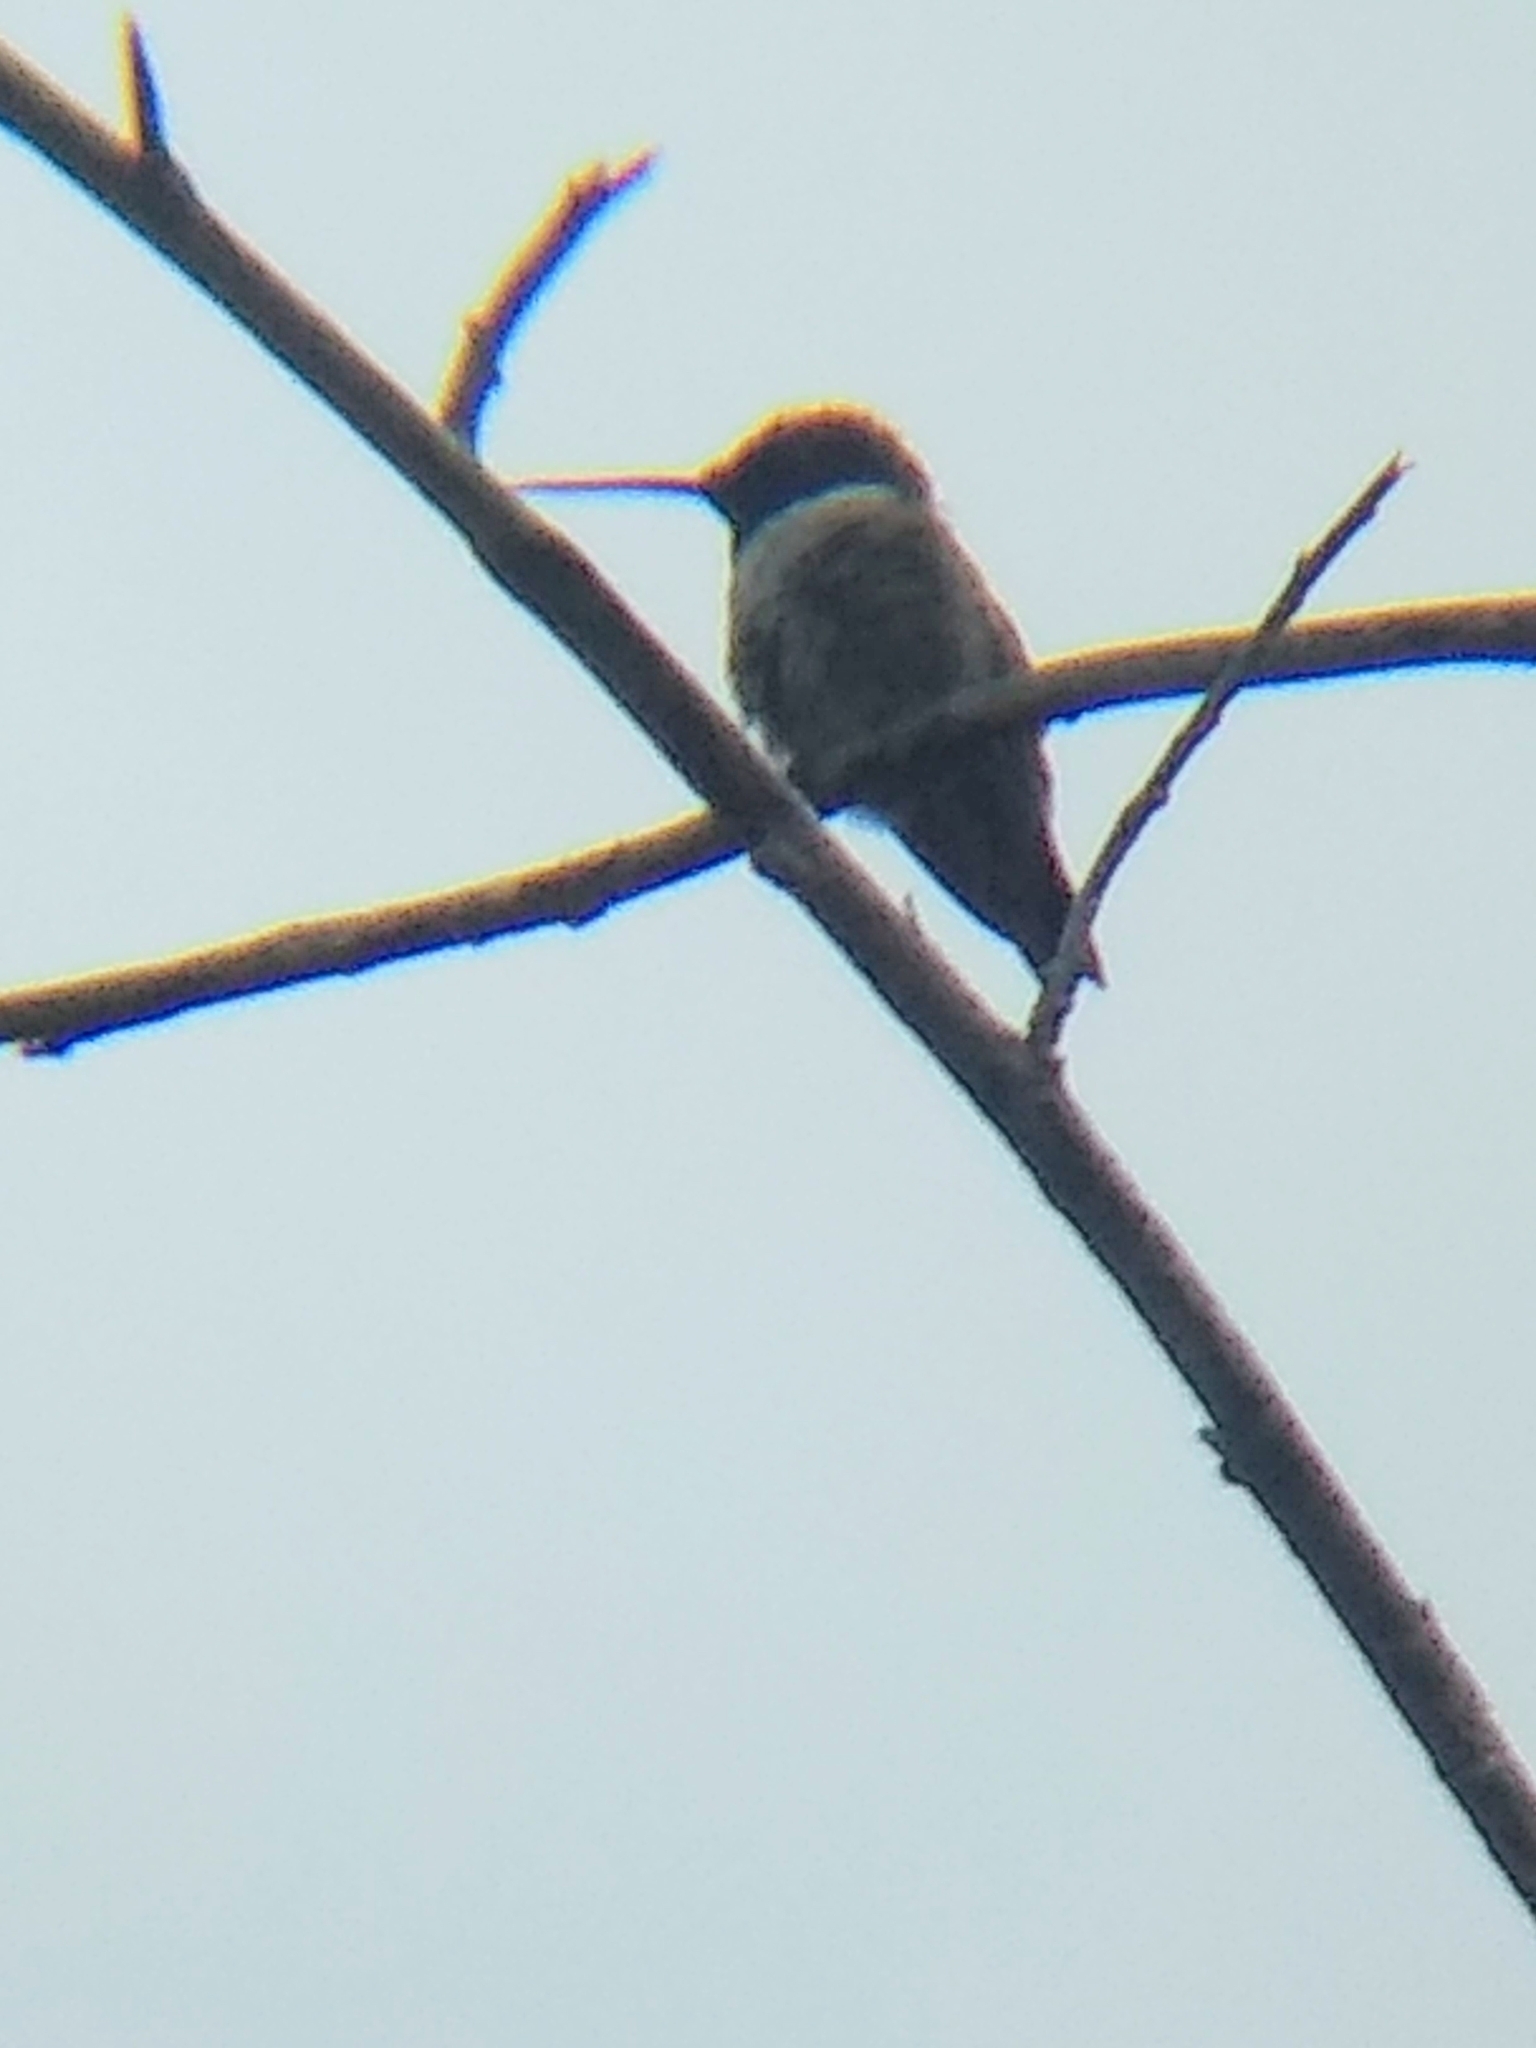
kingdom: Animalia
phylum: Chordata
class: Aves
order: Apodiformes
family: Trochilidae
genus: Archilochus
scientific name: Archilochus alexandri
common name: Black-chinned hummingbird
